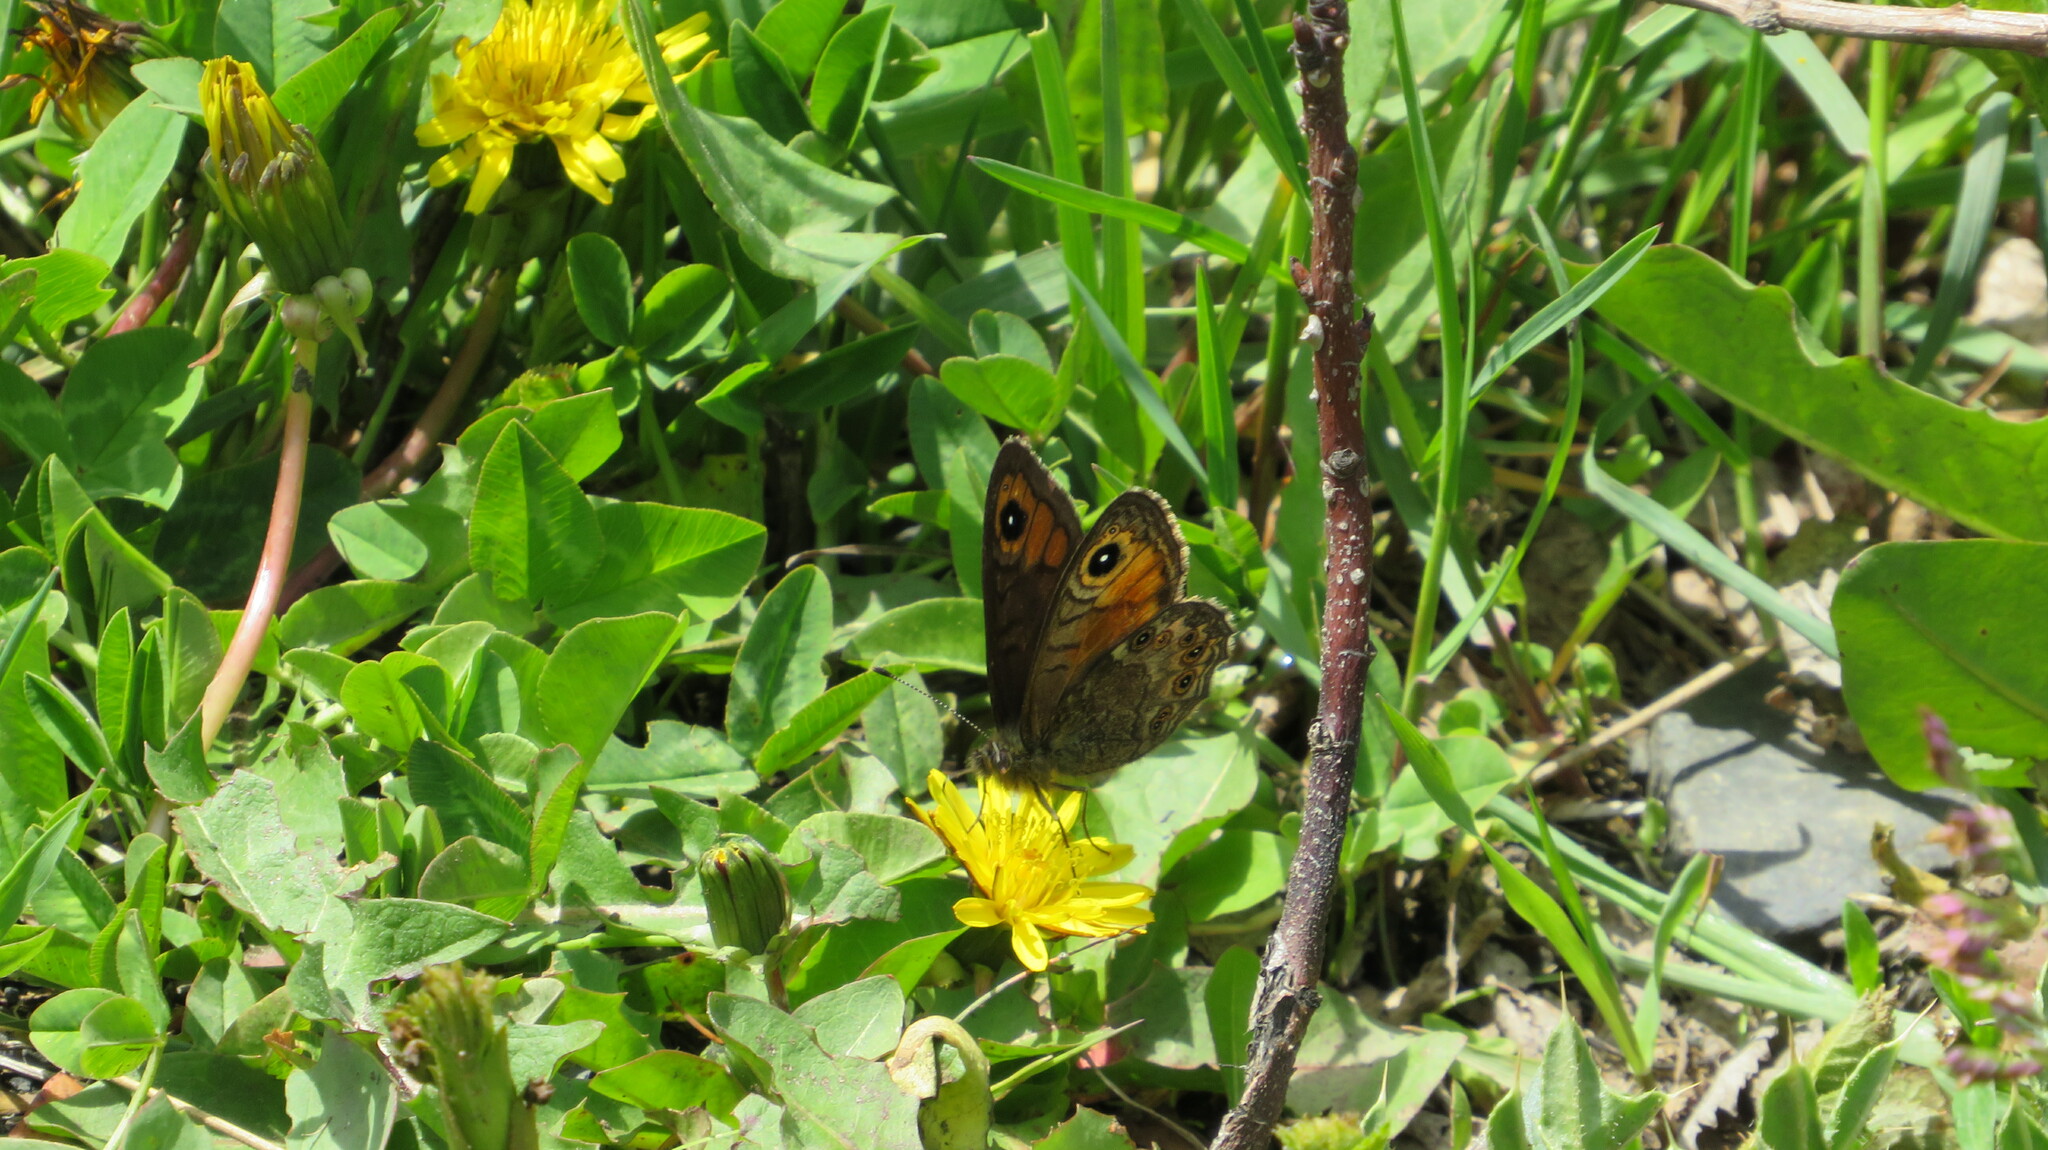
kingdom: Animalia
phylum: Arthropoda
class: Insecta
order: Lepidoptera
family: Nymphalidae
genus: Pararge
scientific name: Pararge petropolitana
